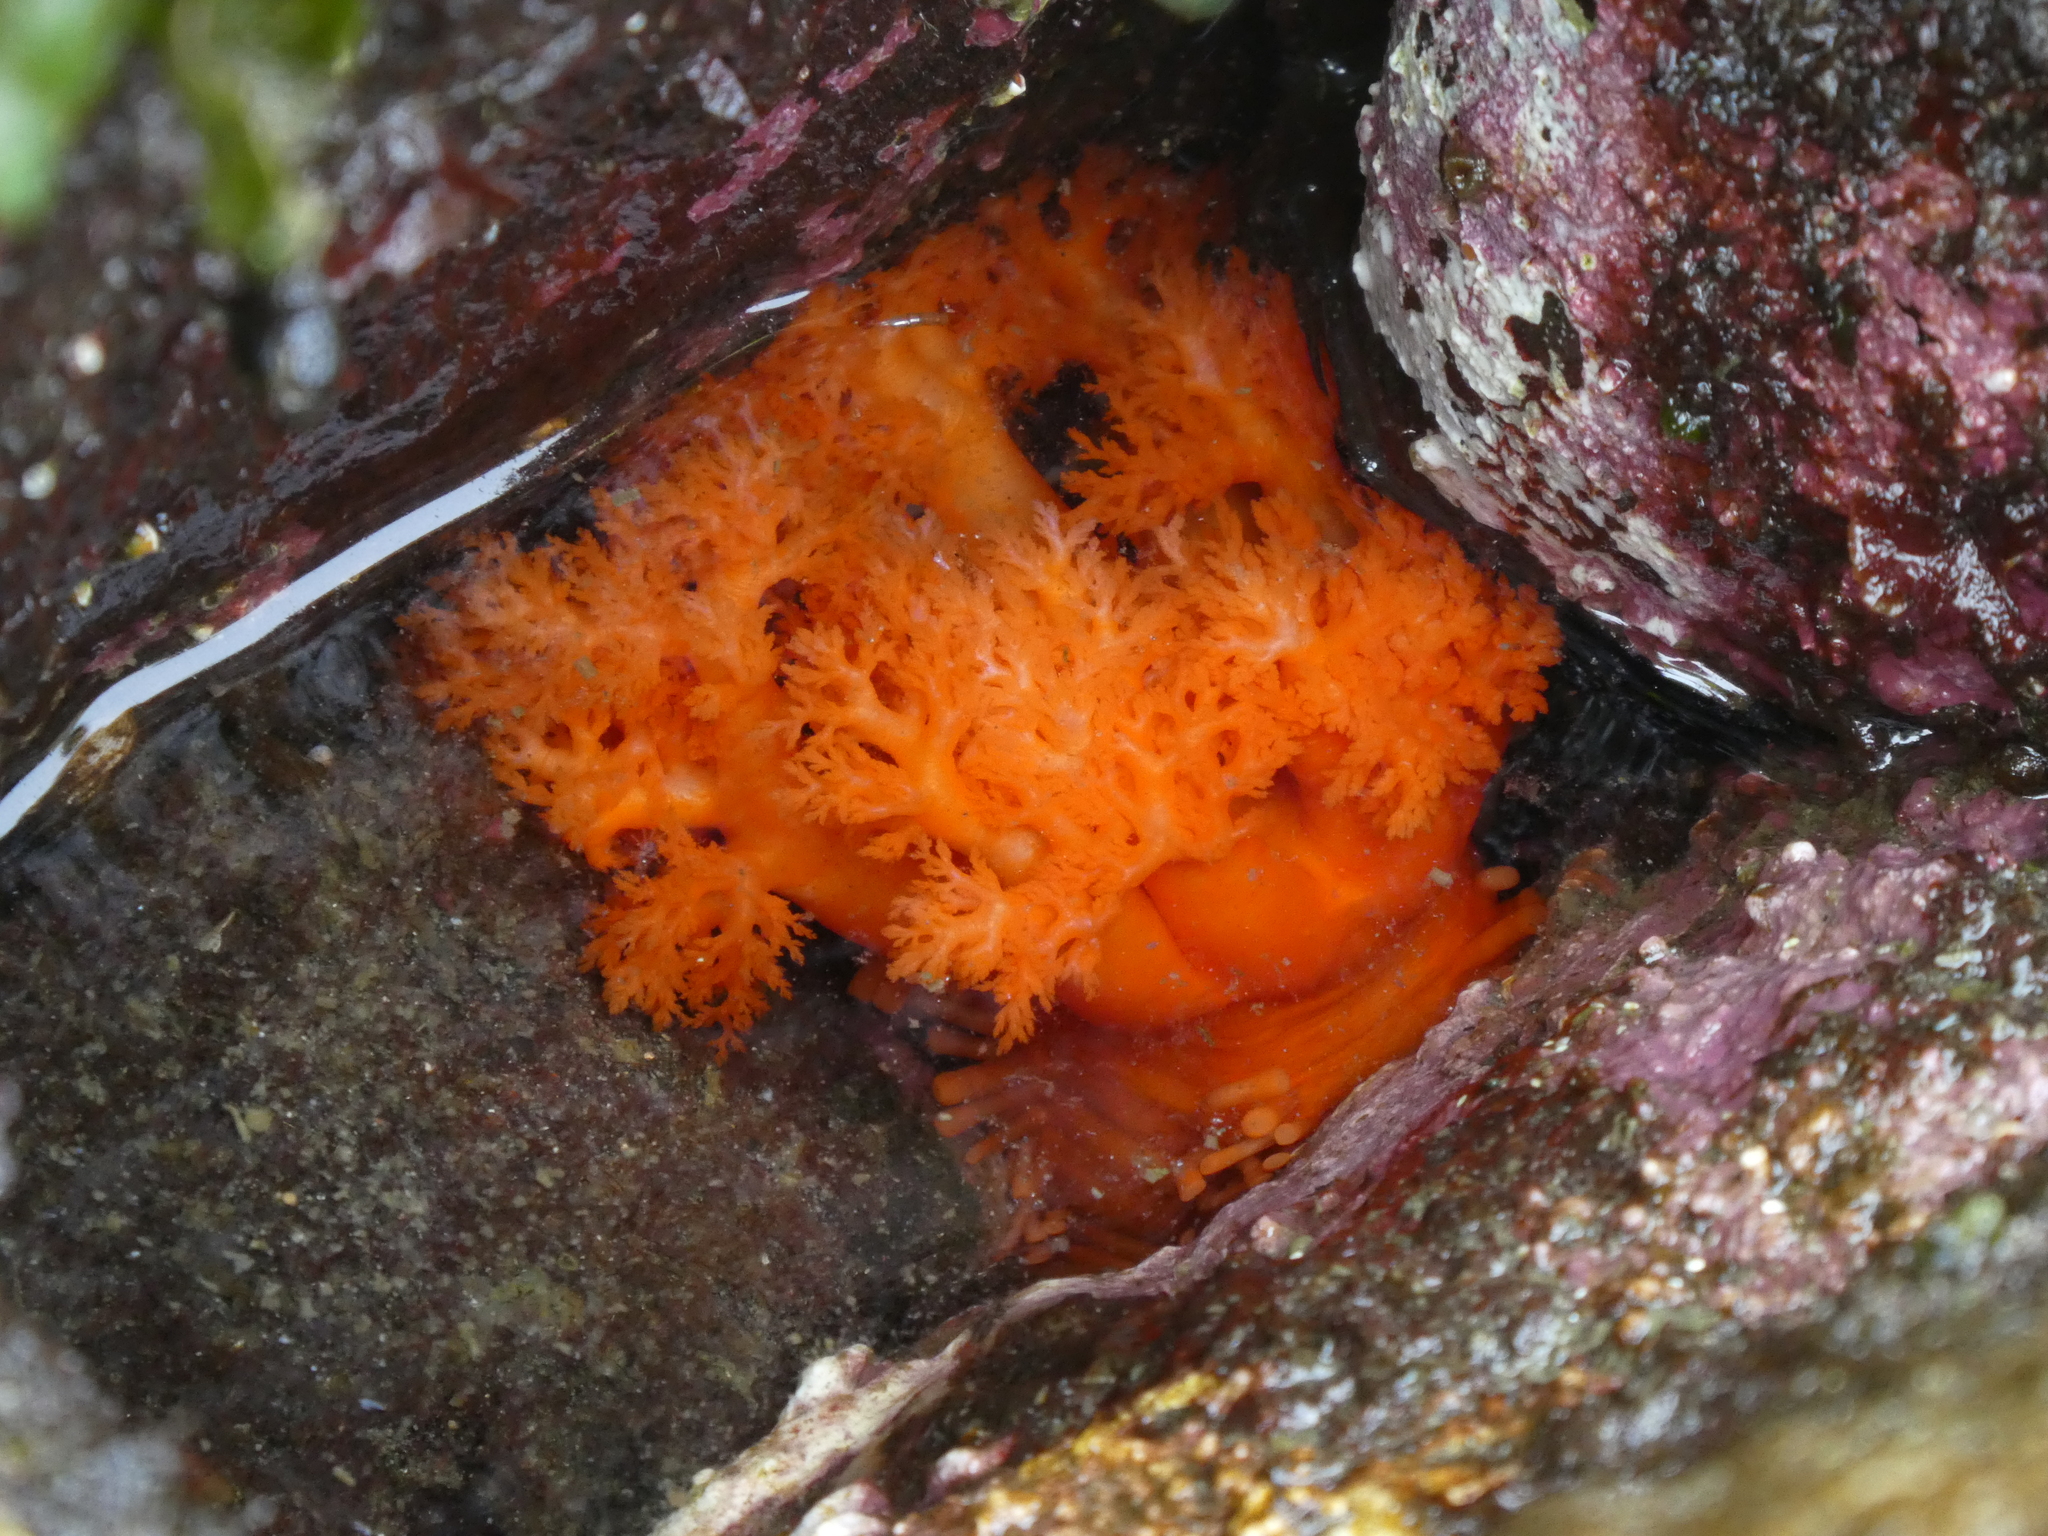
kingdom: Animalia
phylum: Echinodermata
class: Holothuroidea
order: Dendrochirotida
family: Cucumariidae
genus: Cucumaria
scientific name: Cucumaria miniata
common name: Orange sea cucumber
